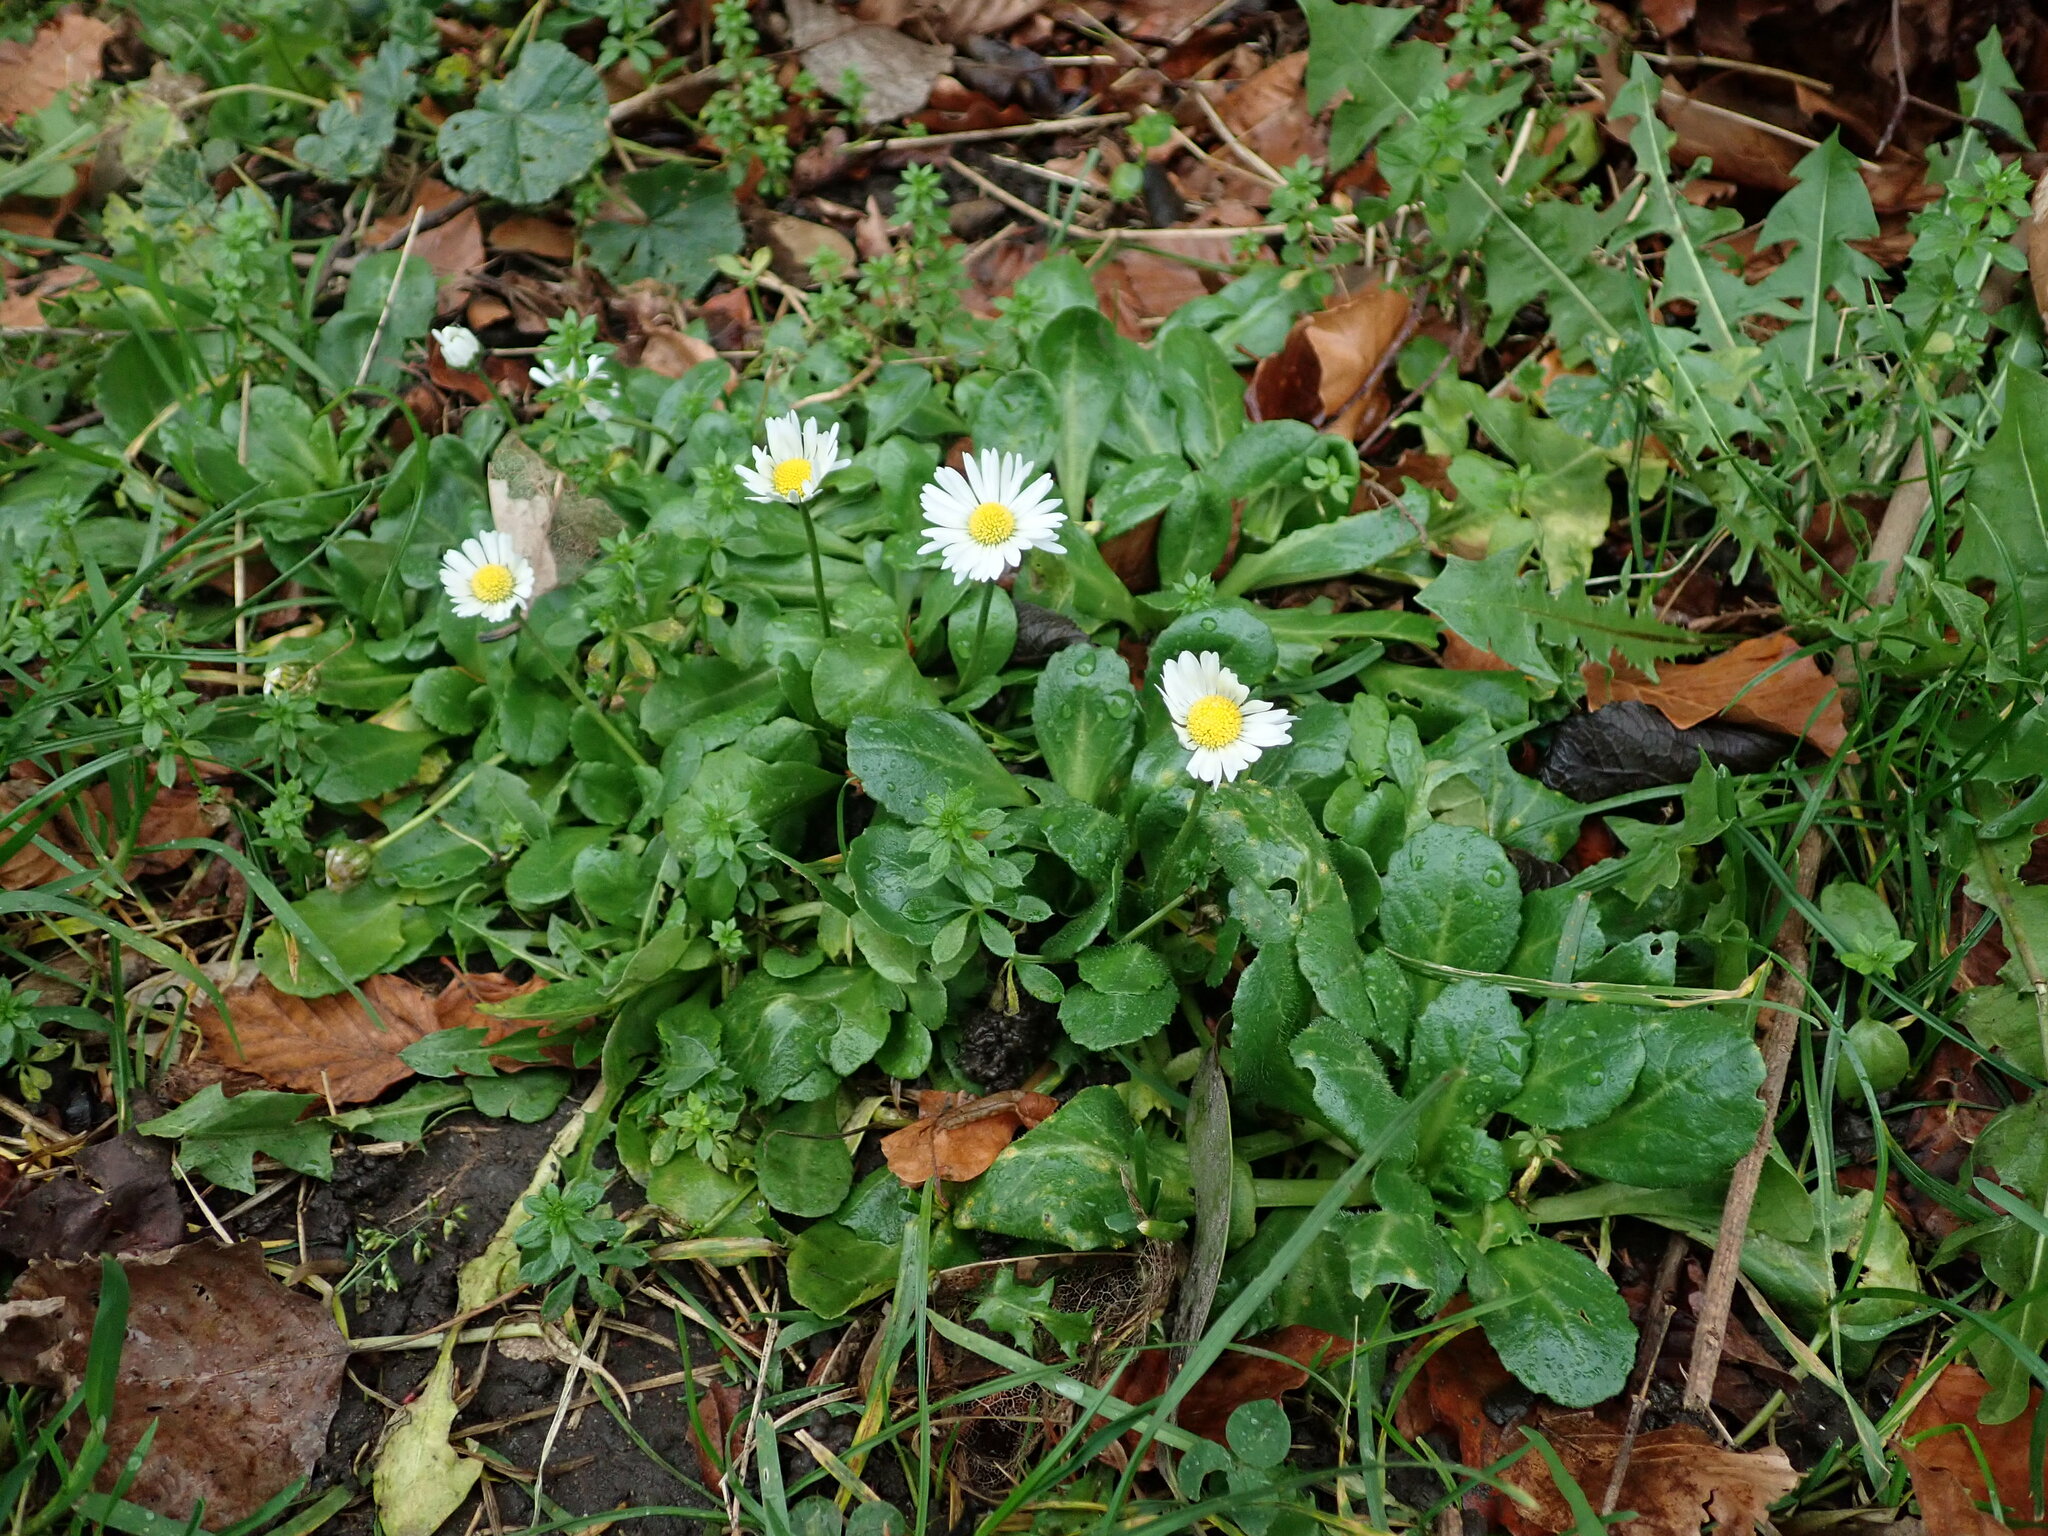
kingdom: Plantae
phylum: Tracheophyta
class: Magnoliopsida
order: Asterales
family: Asteraceae
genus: Bellis
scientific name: Bellis perennis
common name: Lawndaisy
